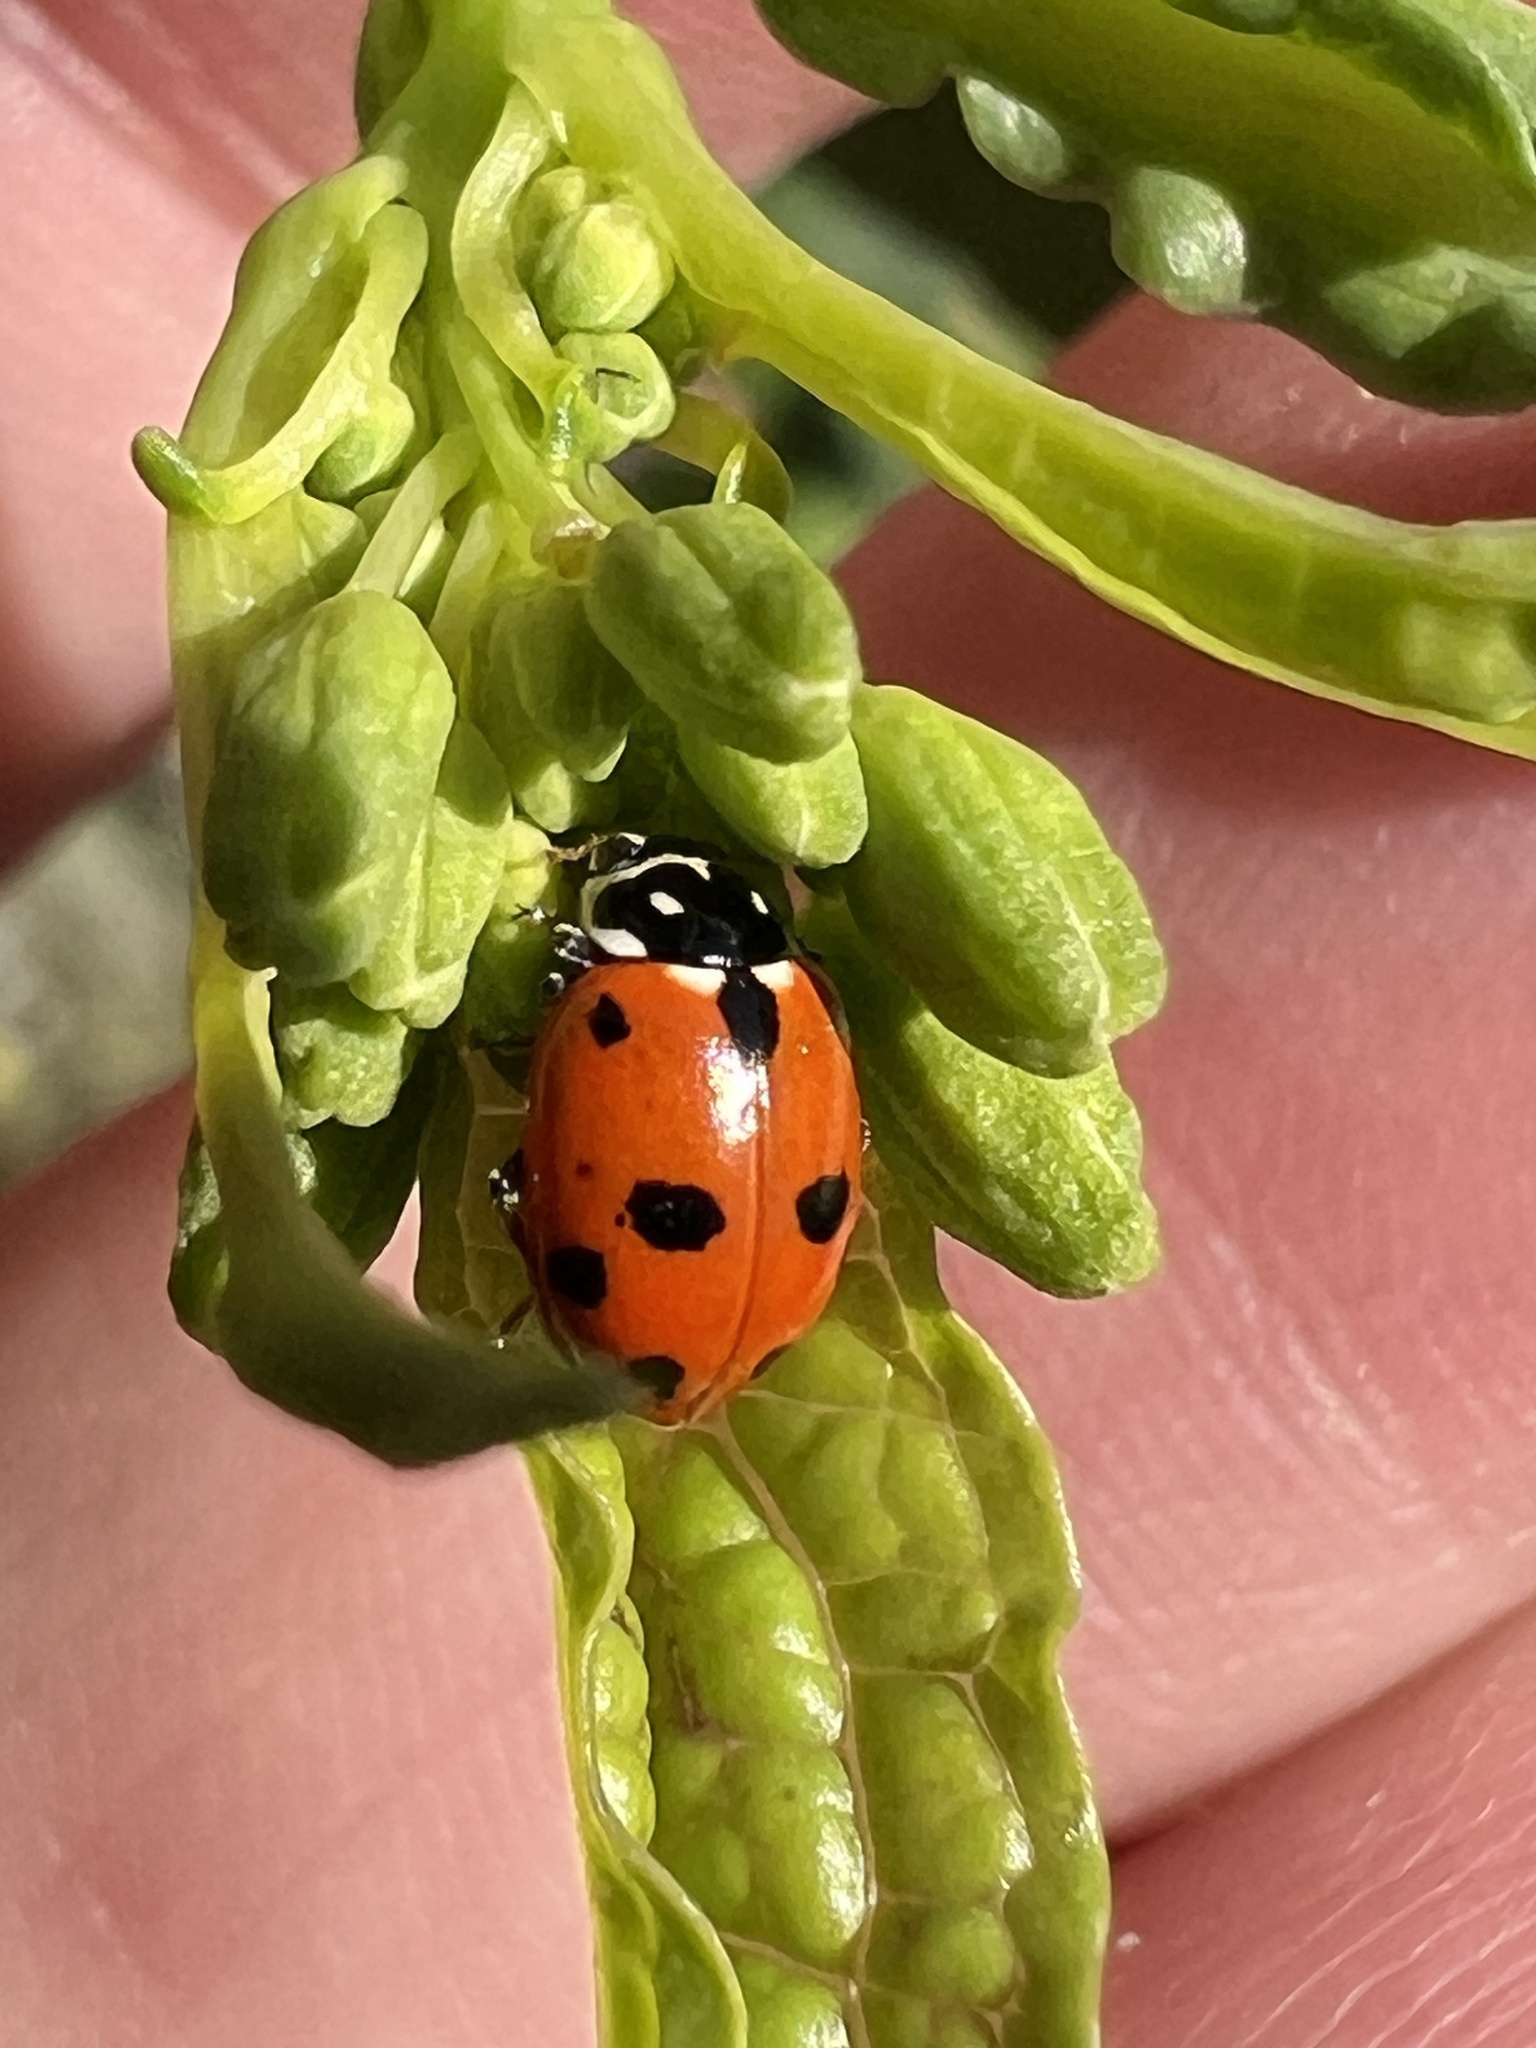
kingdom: Animalia
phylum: Arthropoda
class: Insecta
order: Coleoptera
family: Coccinellidae
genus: Hippodamia
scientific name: Hippodamia variegata
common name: Ladybird beetle
